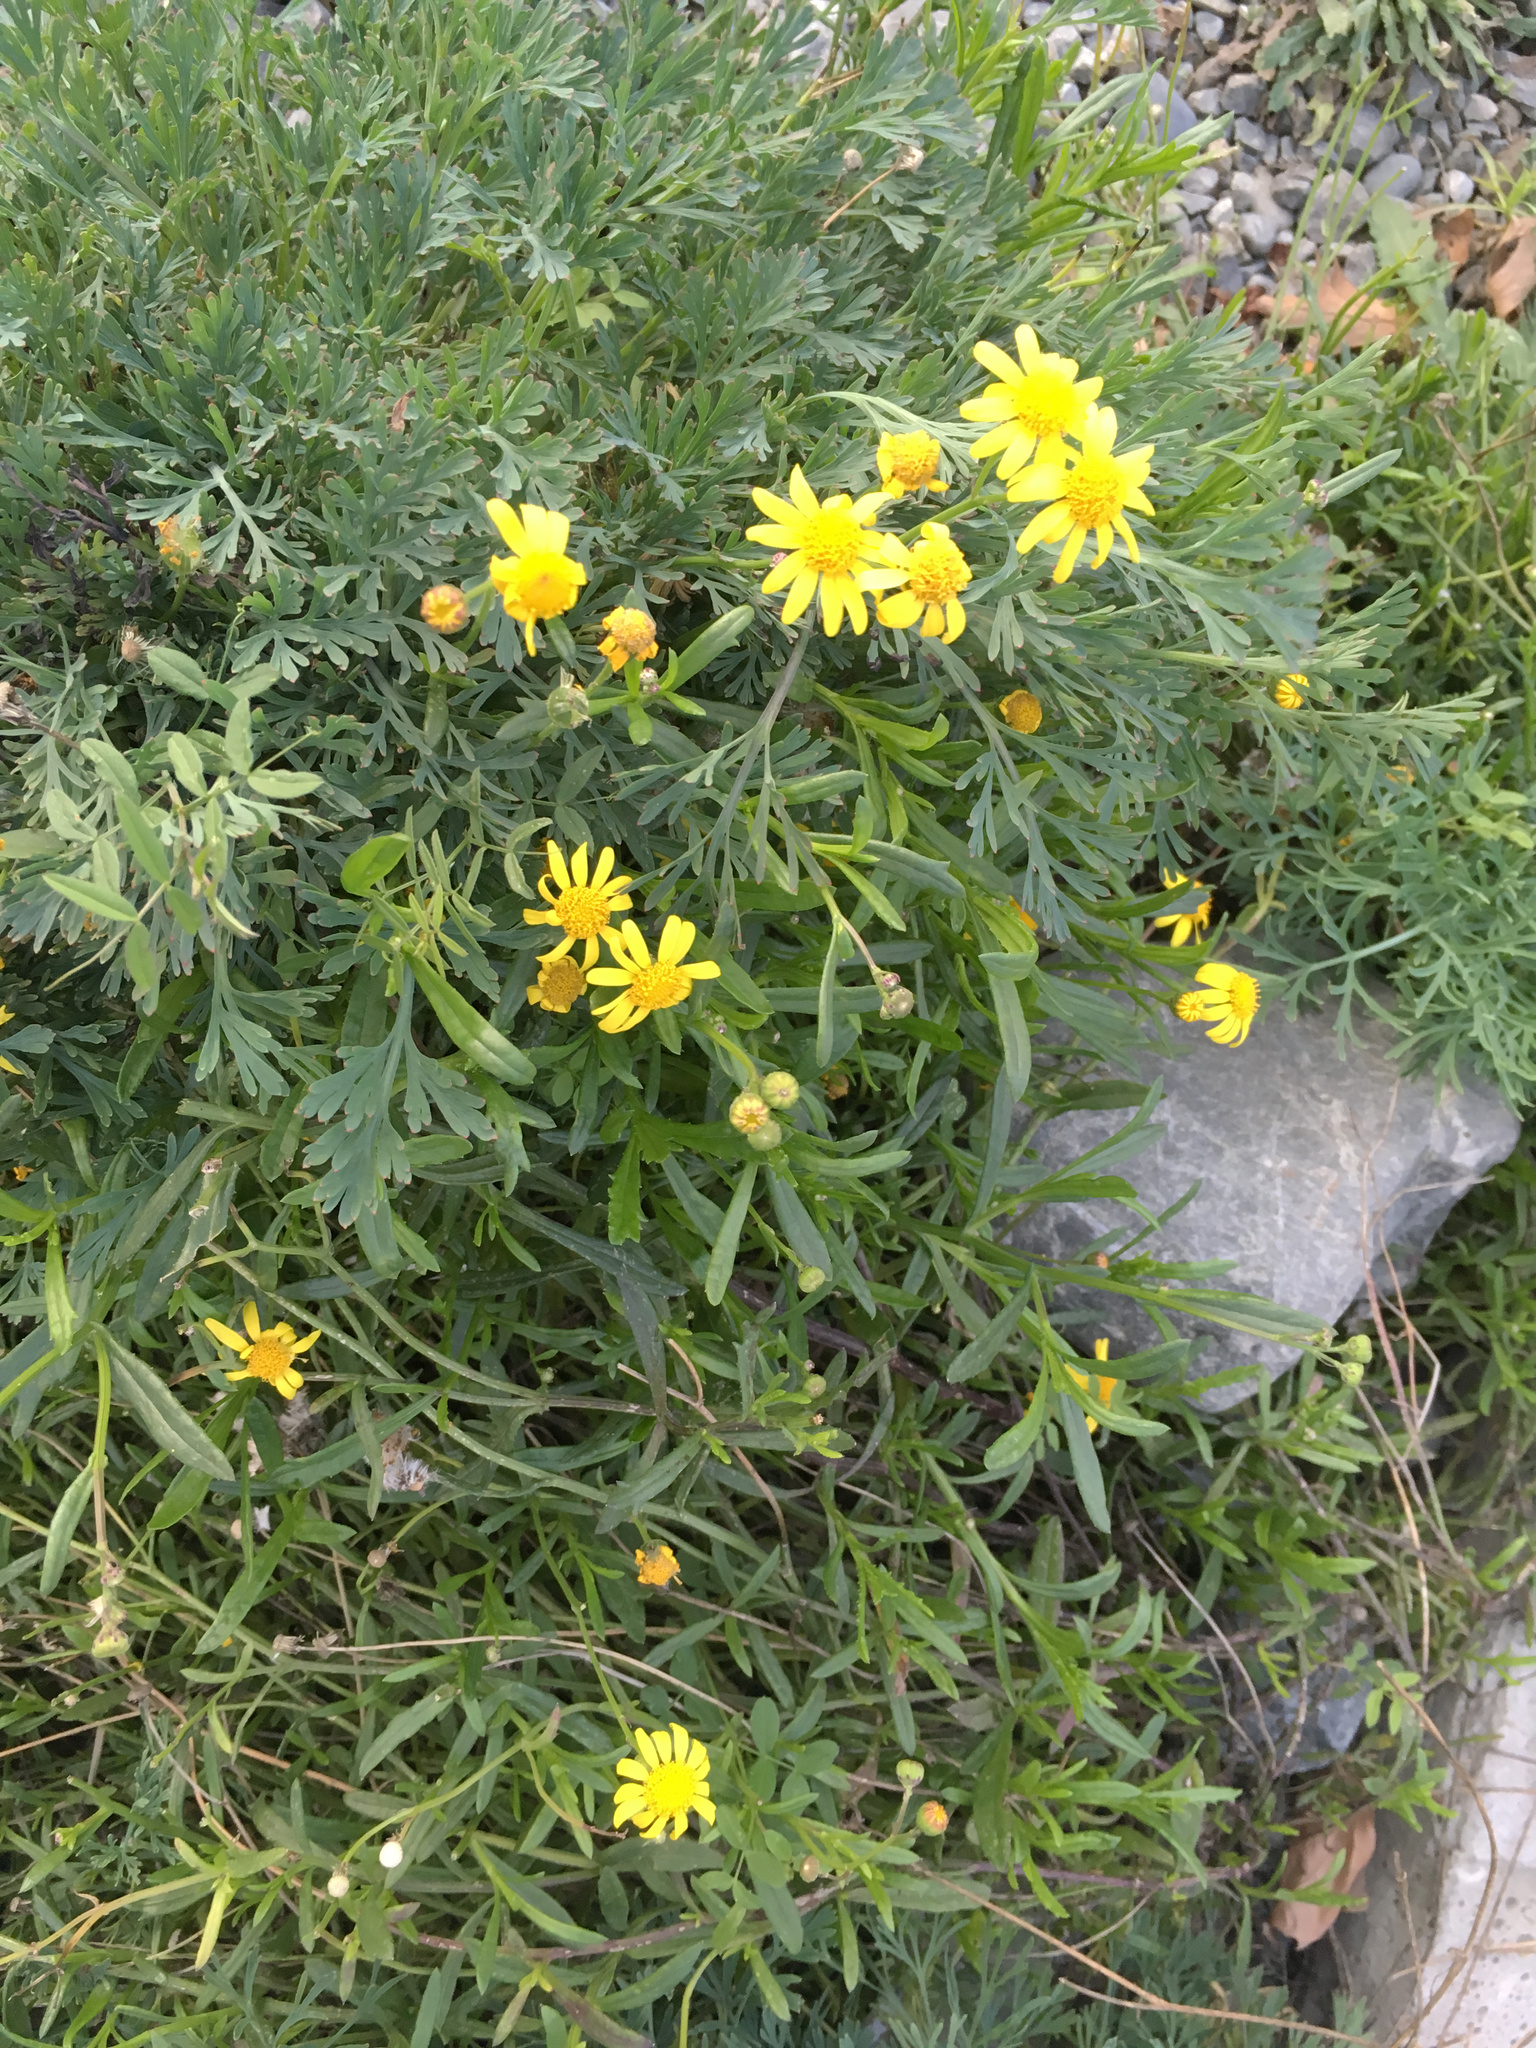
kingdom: Plantae
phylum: Tracheophyta
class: Magnoliopsida
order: Asterales
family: Asteraceae
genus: Senecio
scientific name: Senecio skirrhodon
